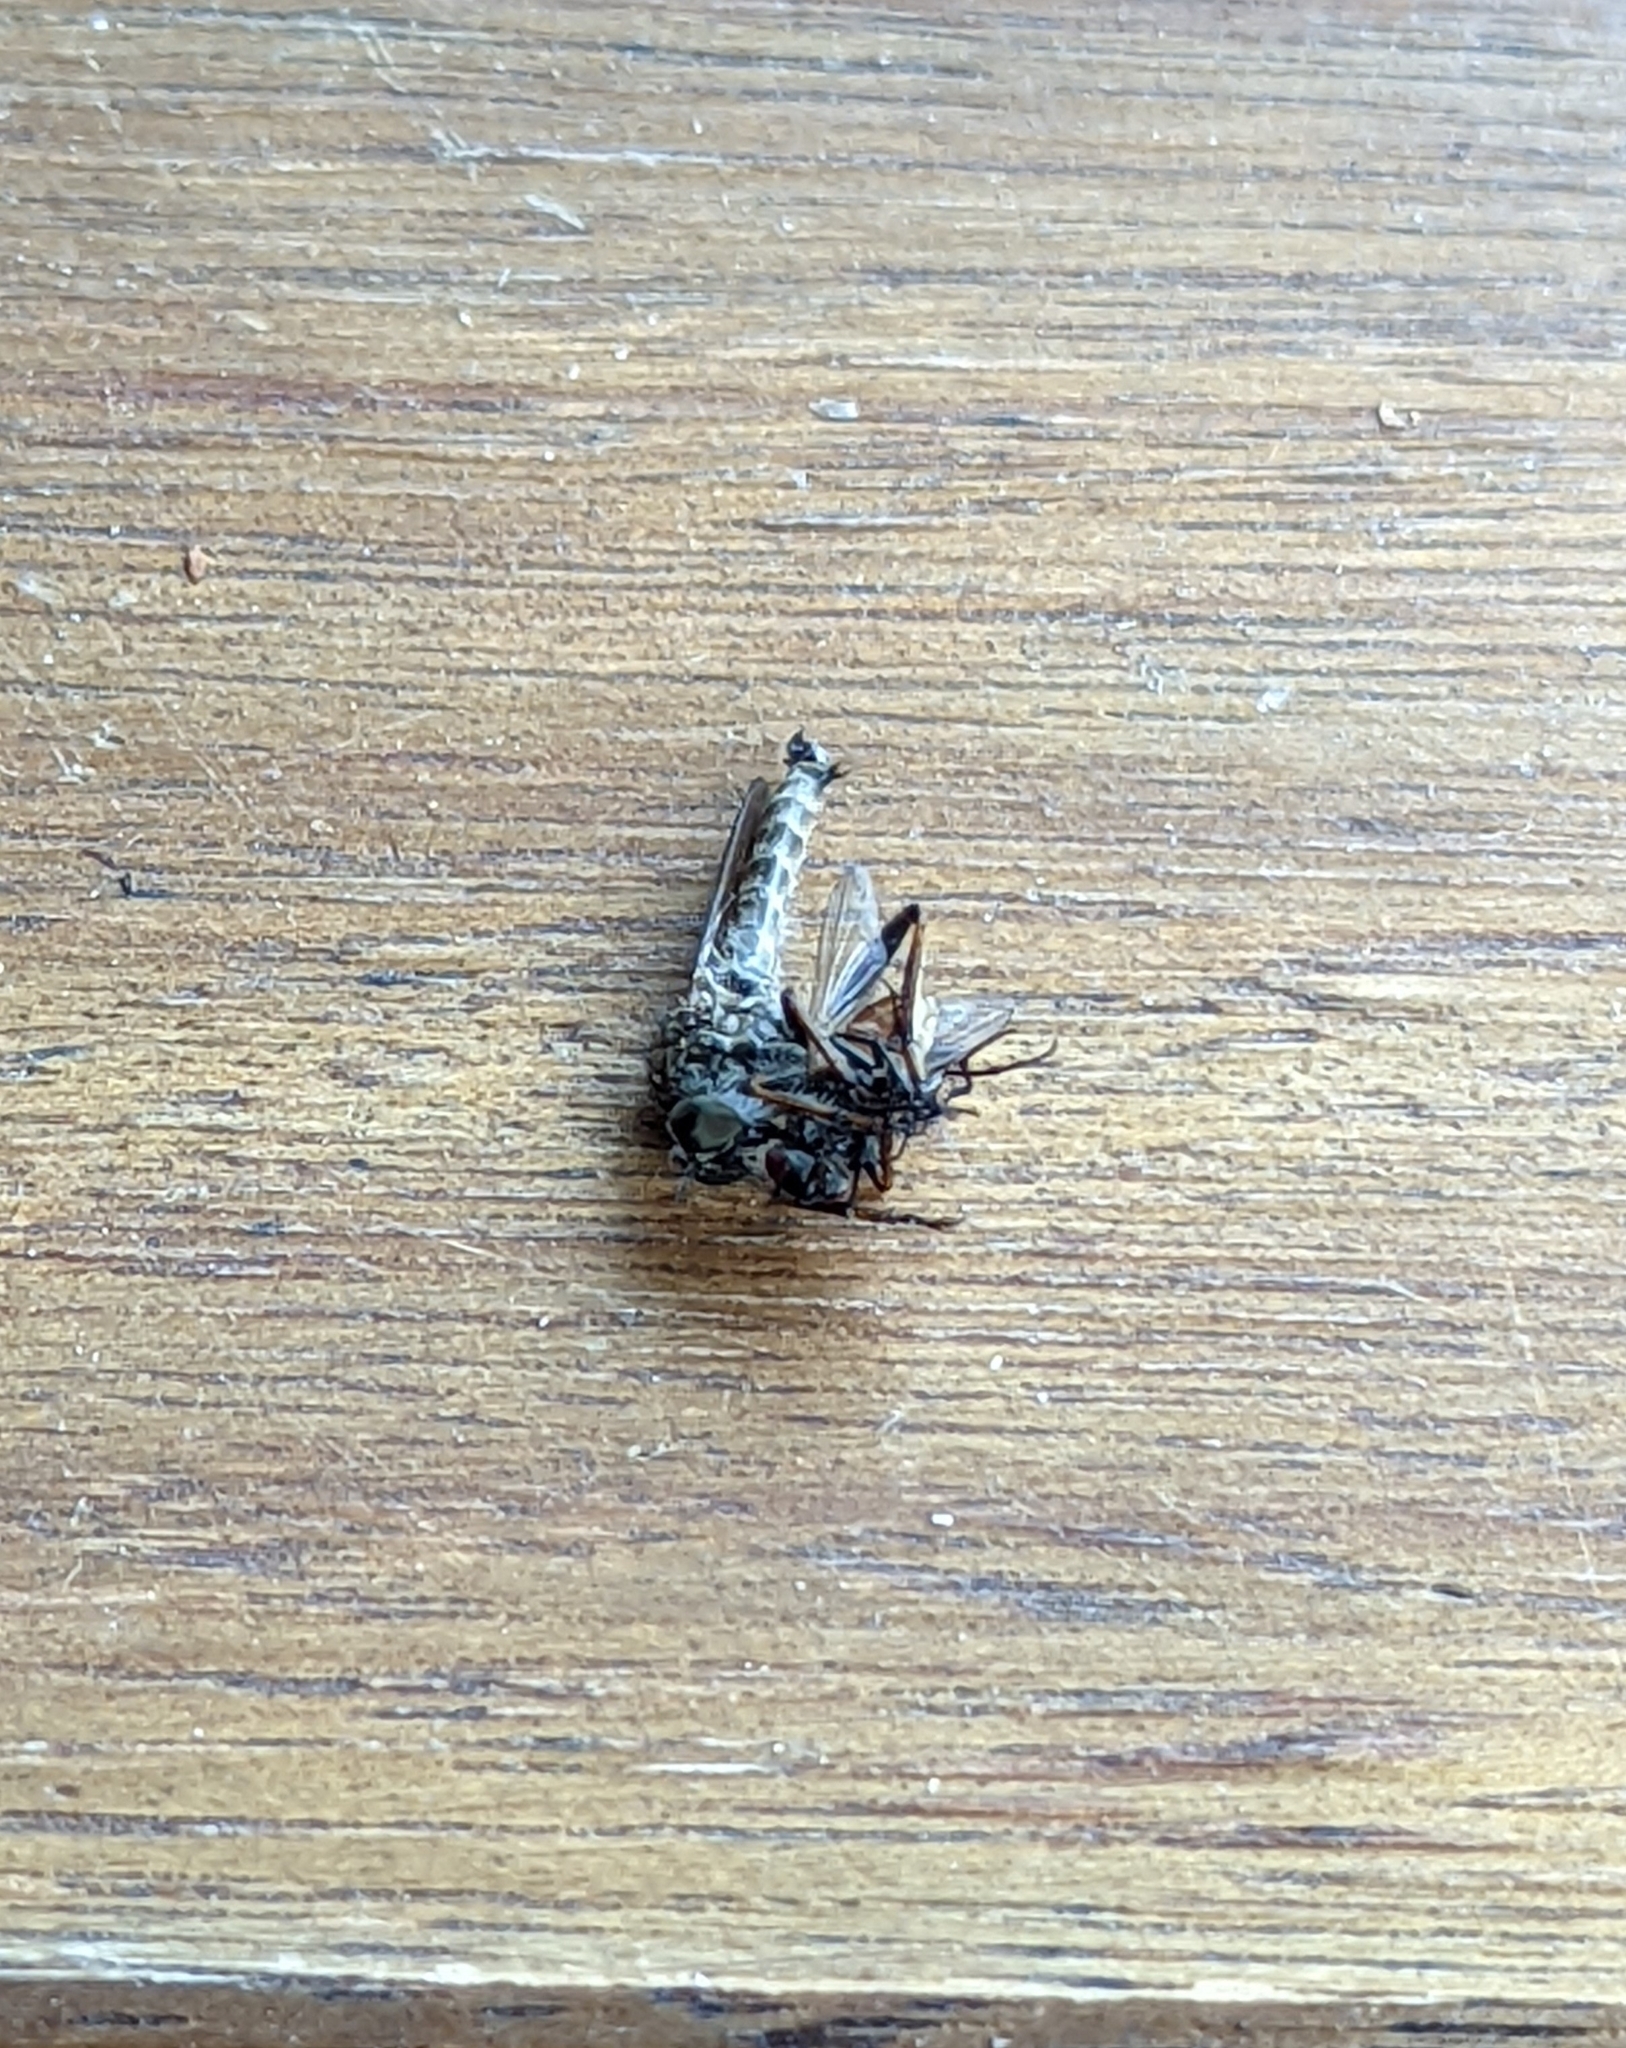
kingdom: Animalia
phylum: Arthropoda
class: Insecta
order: Diptera
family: Asilidae
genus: Machimus
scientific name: Machimus atricapillus
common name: Kite-tailed robberfly
